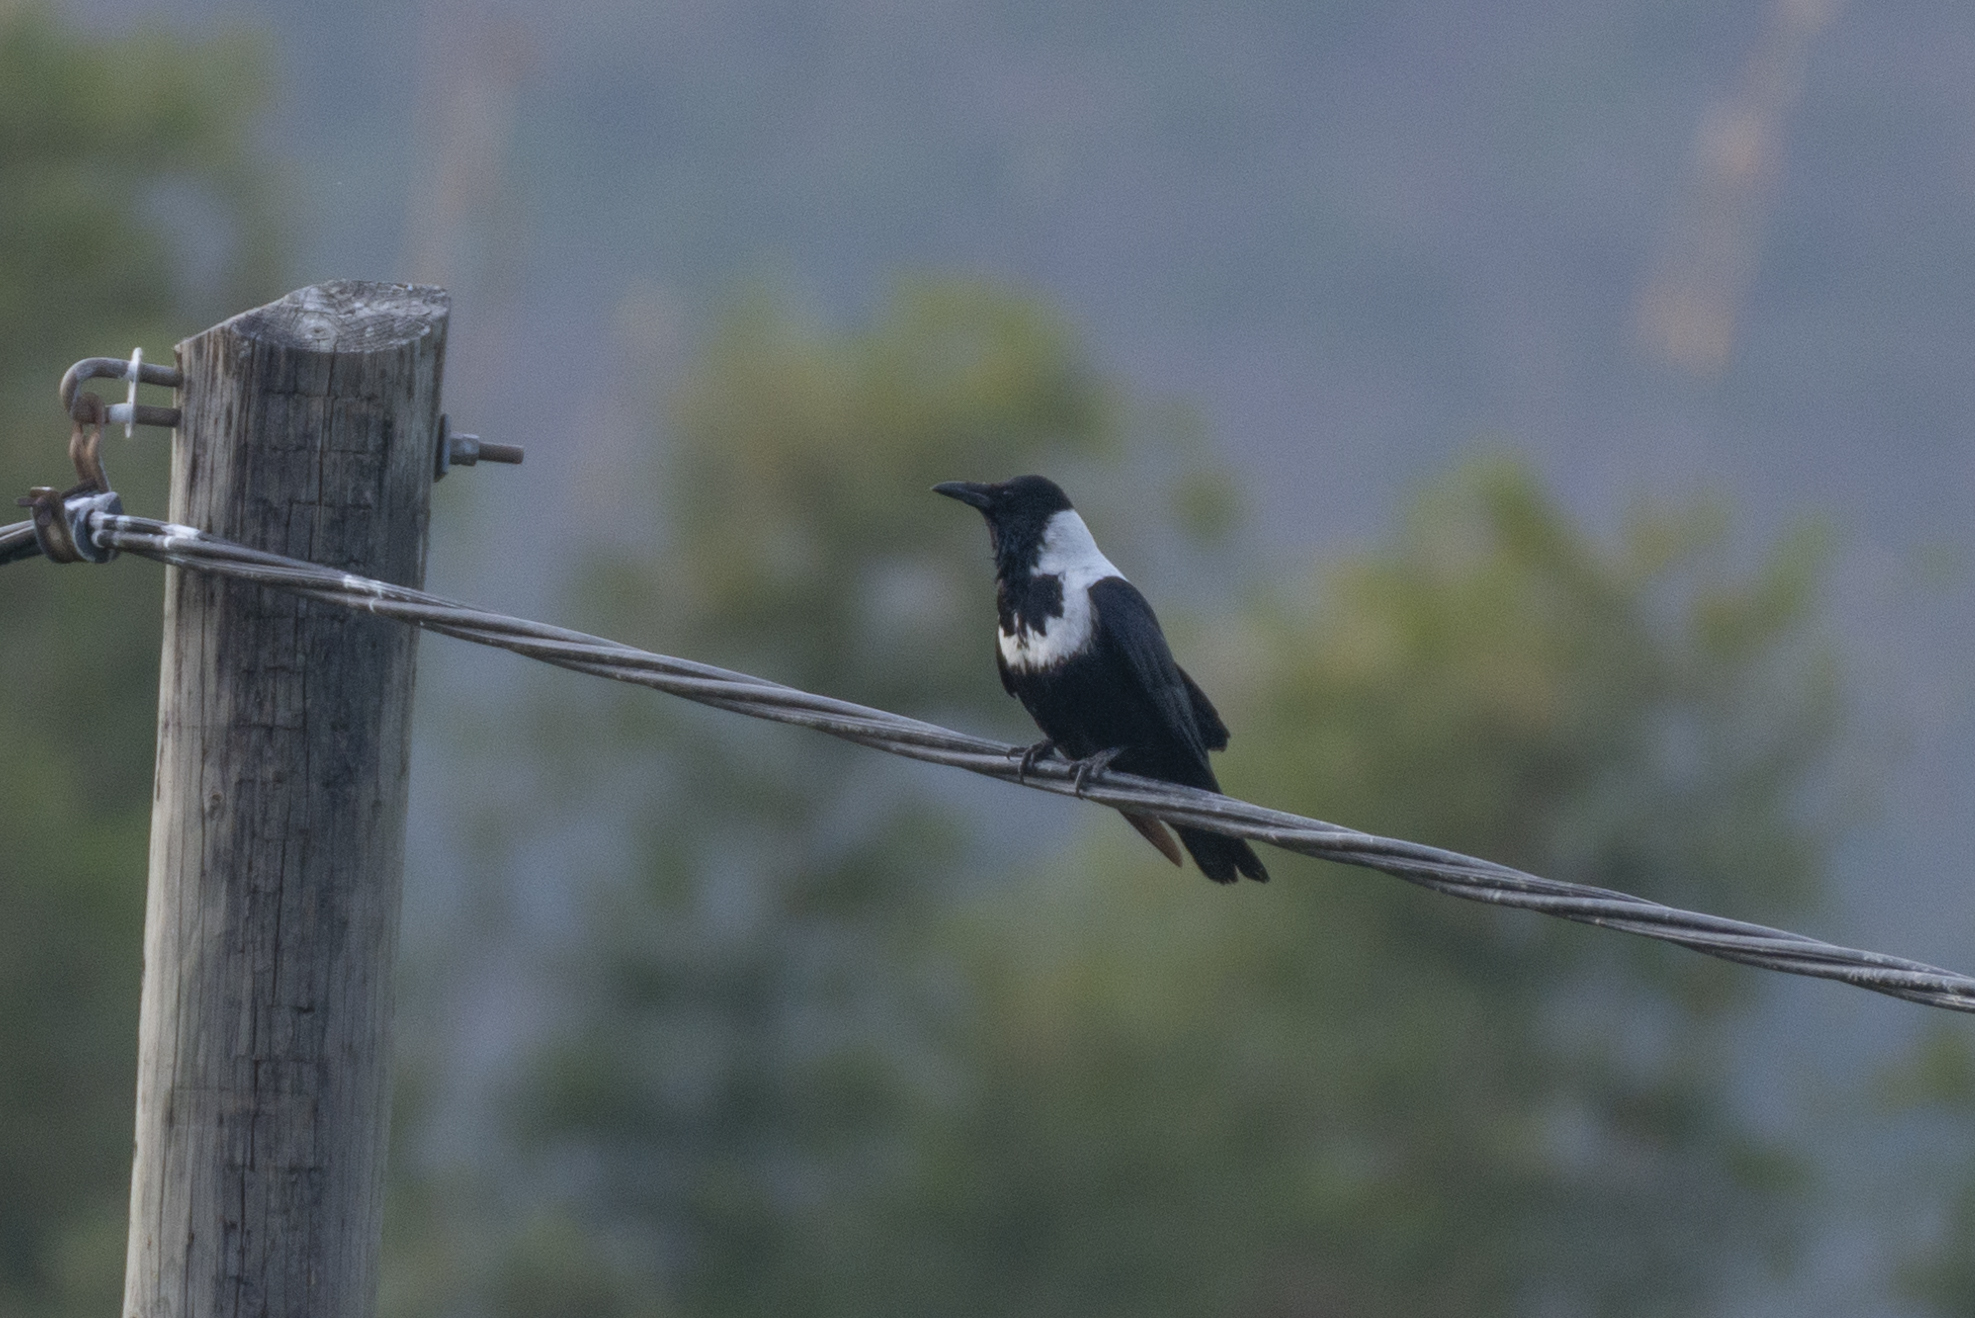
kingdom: Animalia
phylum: Chordata
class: Aves
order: Passeriformes
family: Corvidae
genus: Corvus
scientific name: Corvus pectoralis
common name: Collared crow
